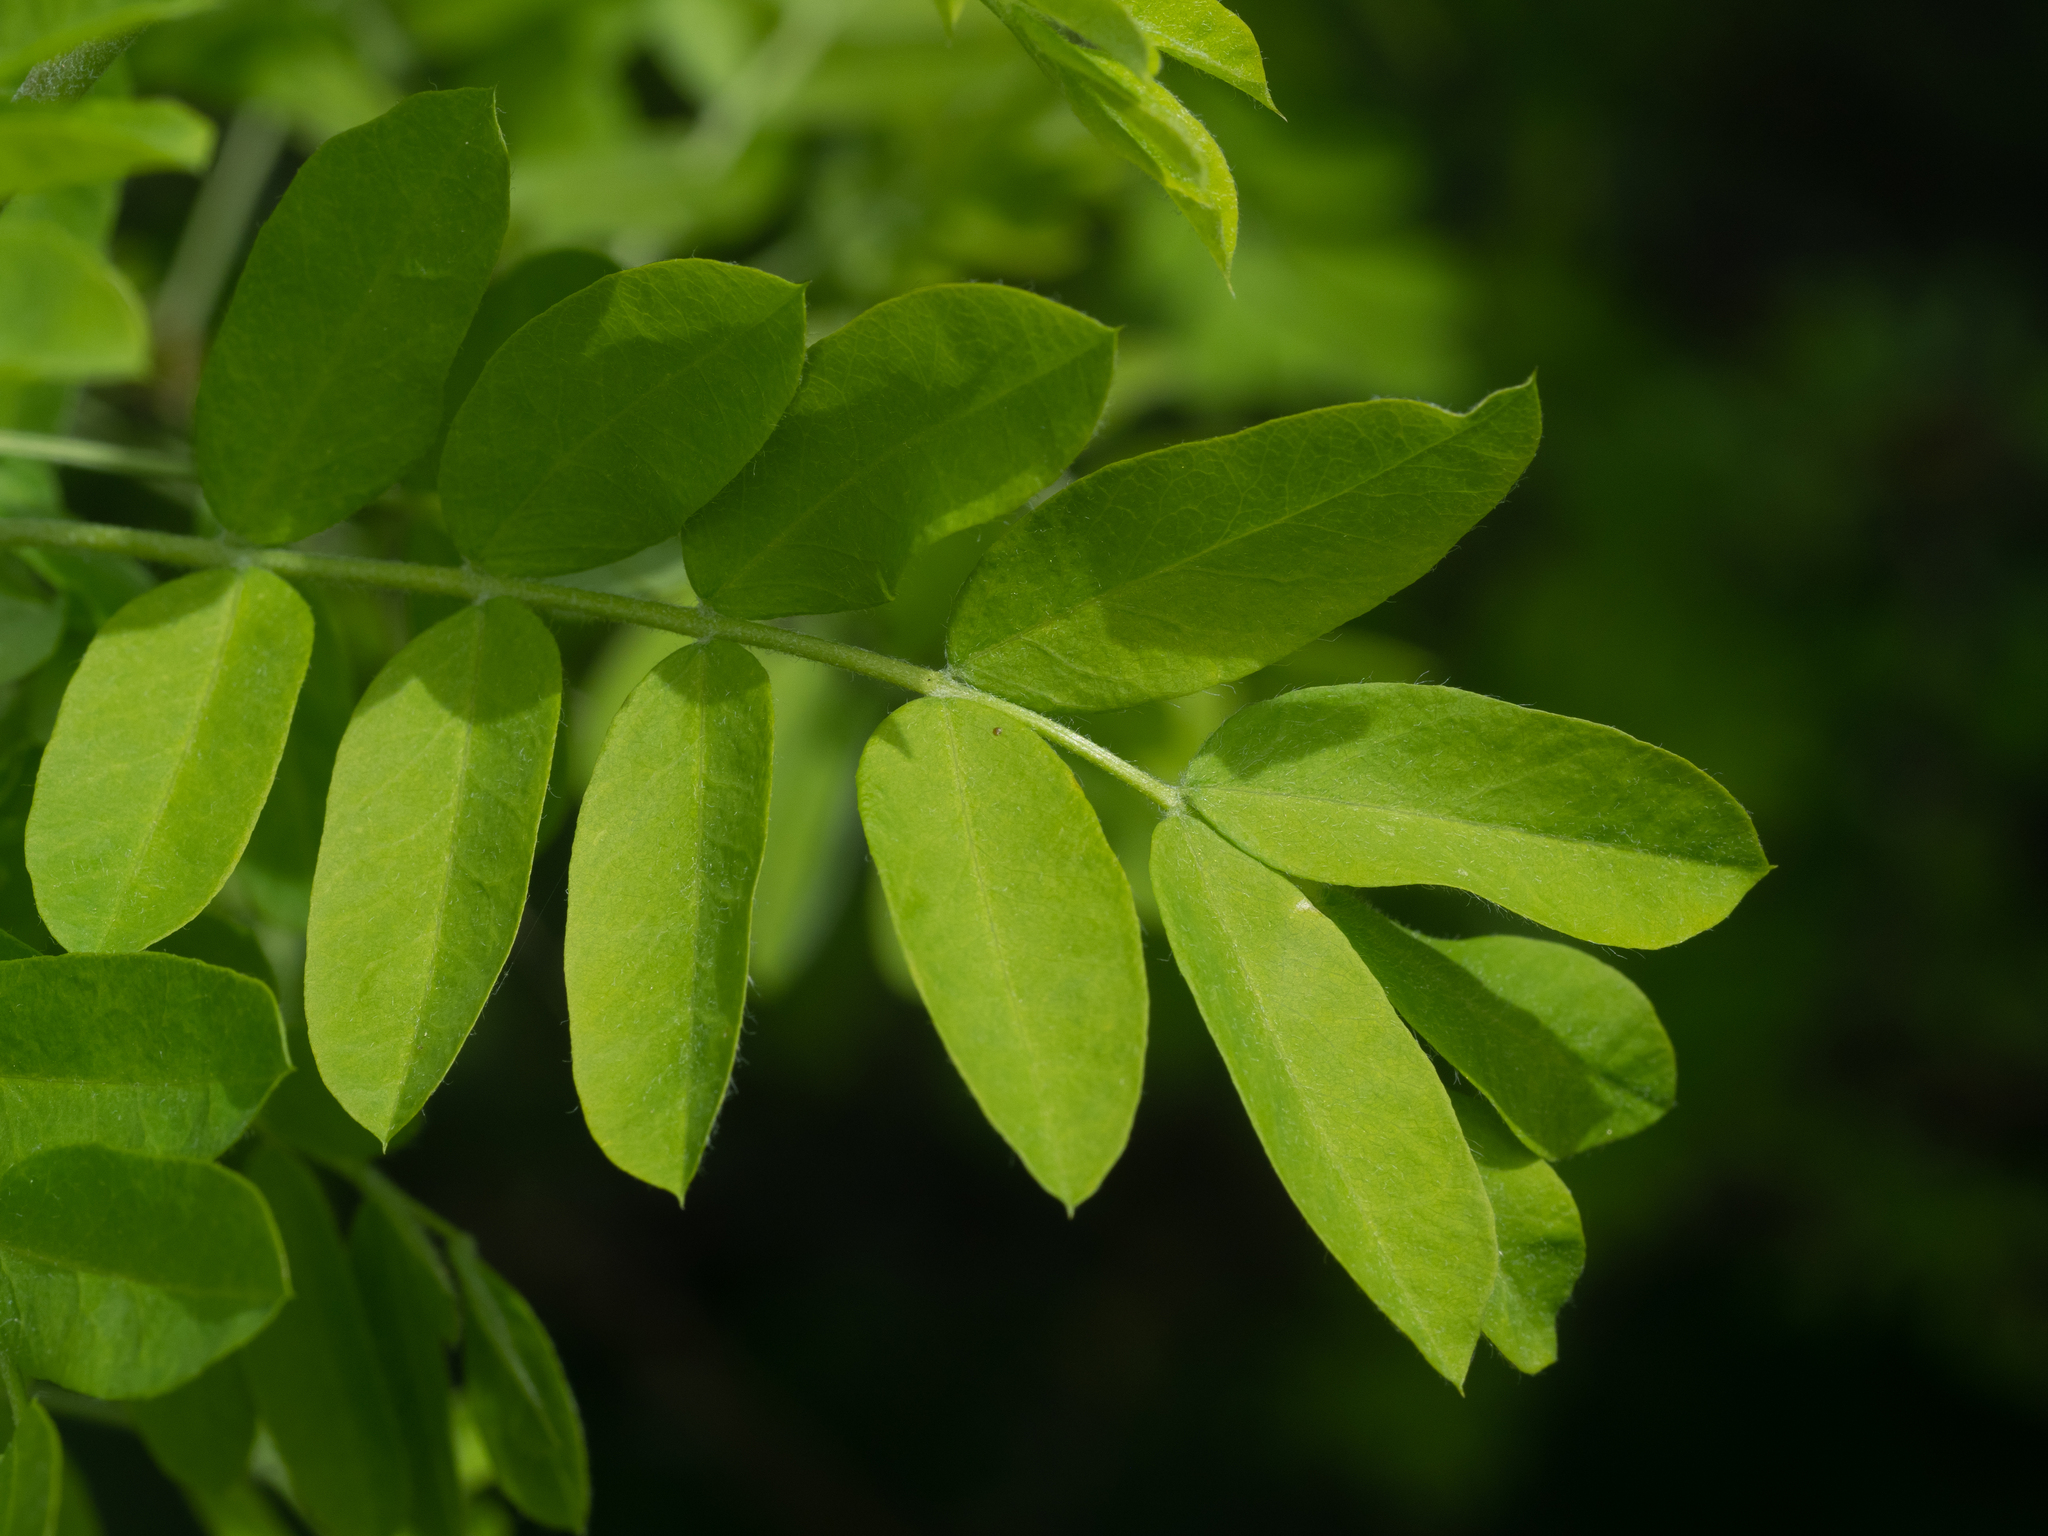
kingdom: Plantae
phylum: Tracheophyta
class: Magnoliopsida
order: Fabales
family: Fabaceae
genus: Caragana
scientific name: Caragana arborescens
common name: Siberian peashrub
